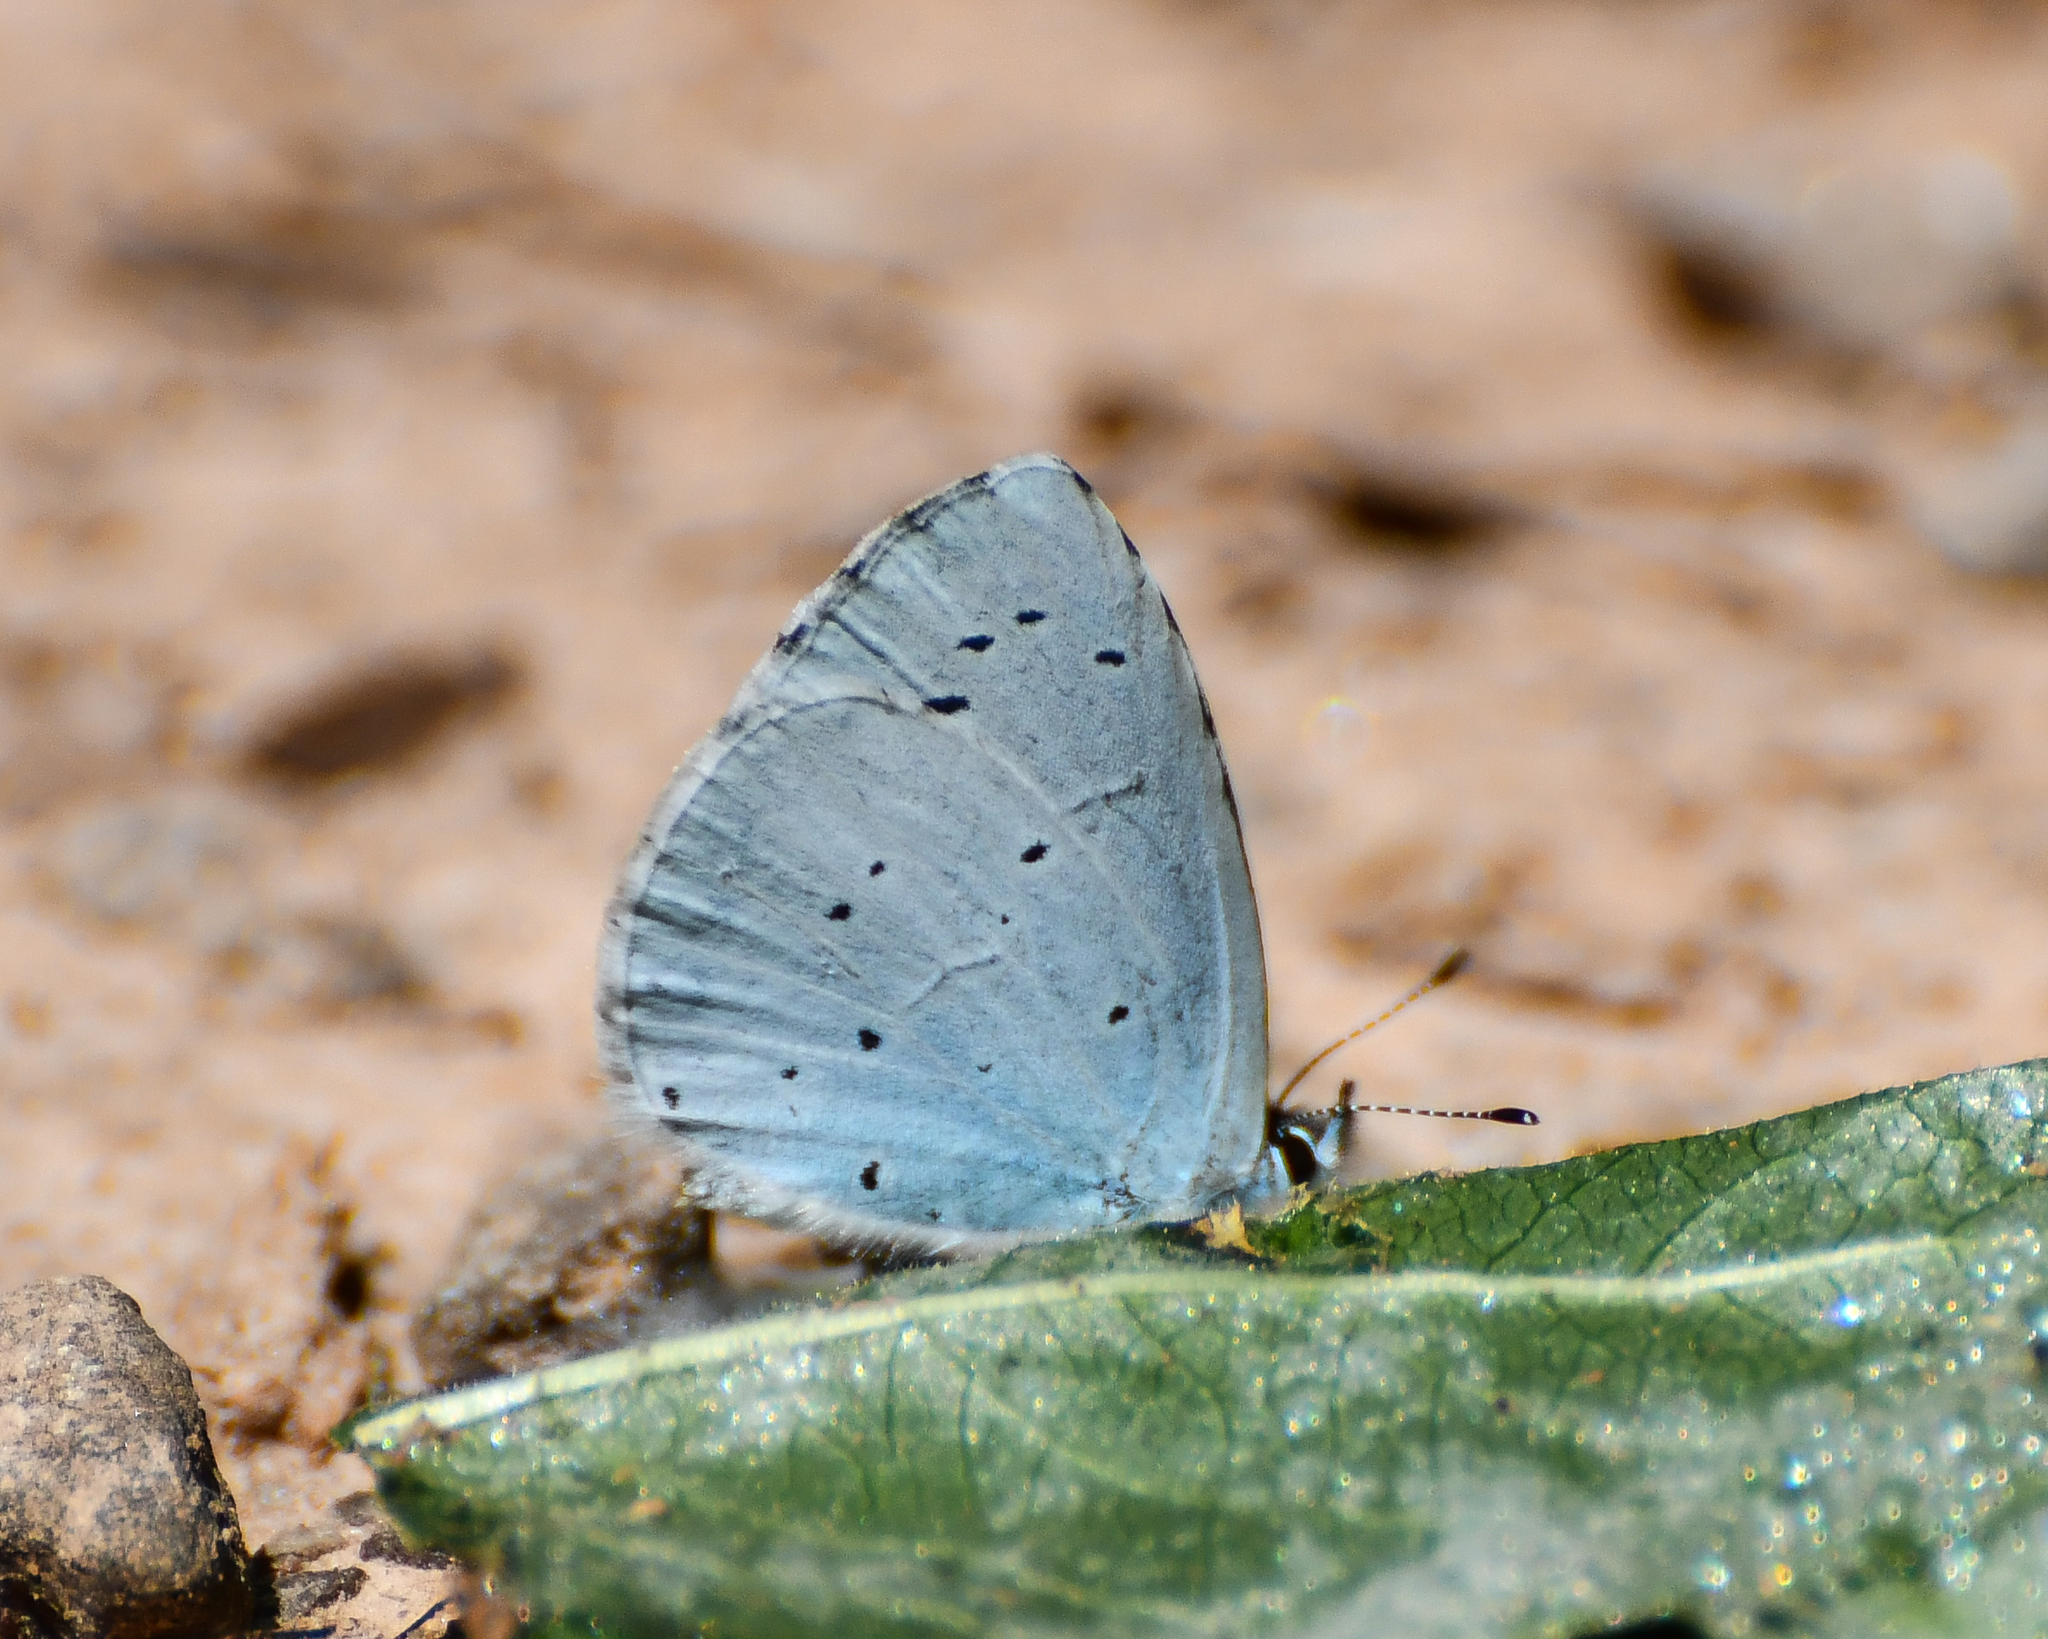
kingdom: Animalia
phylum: Arthropoda
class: Insecta
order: Lepidoptera
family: Lycaenidae
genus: Celastrina
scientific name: Celastrina argiolus
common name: Holly blue
